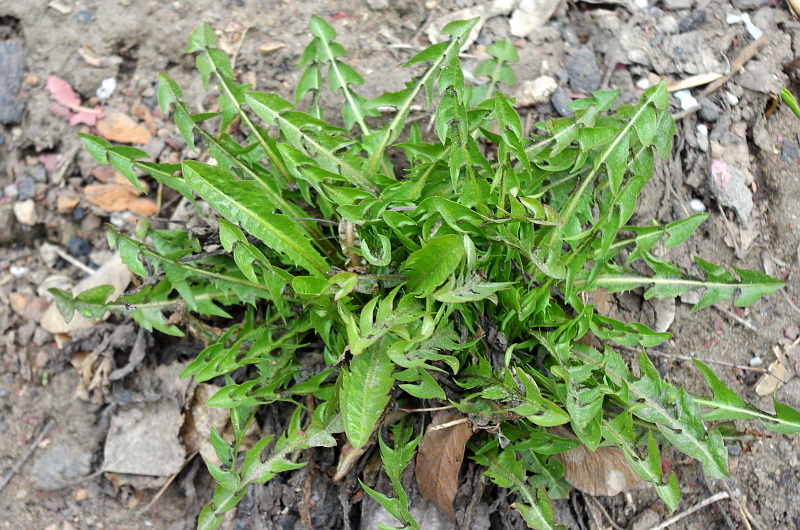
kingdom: Plantae
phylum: Tracheophyta
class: Magnoliopsida
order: Asterales
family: Asteraceae
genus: Taraxacum
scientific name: Taraxacum officinale
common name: Common dandelion
